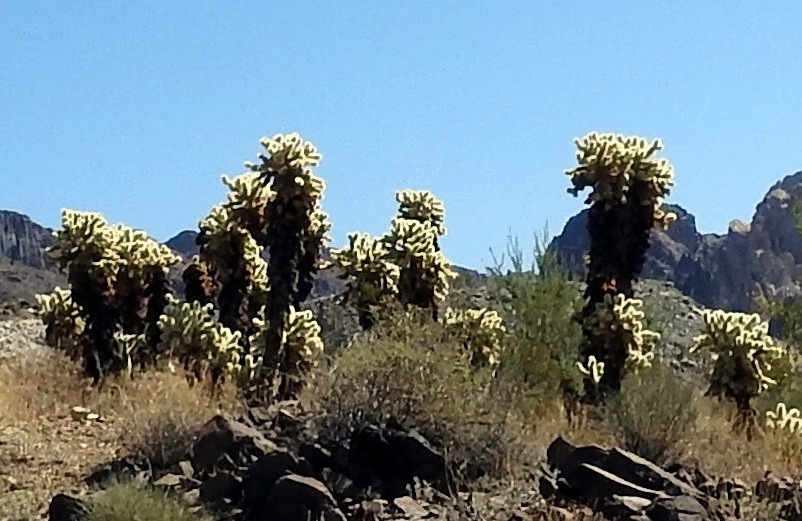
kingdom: Plantae
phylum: Tracheophyta
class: Magnoliopsida
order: Caryophyllales
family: Cactaceae
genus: Cylindropuntia
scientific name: Cylindropuntia fosbergii
